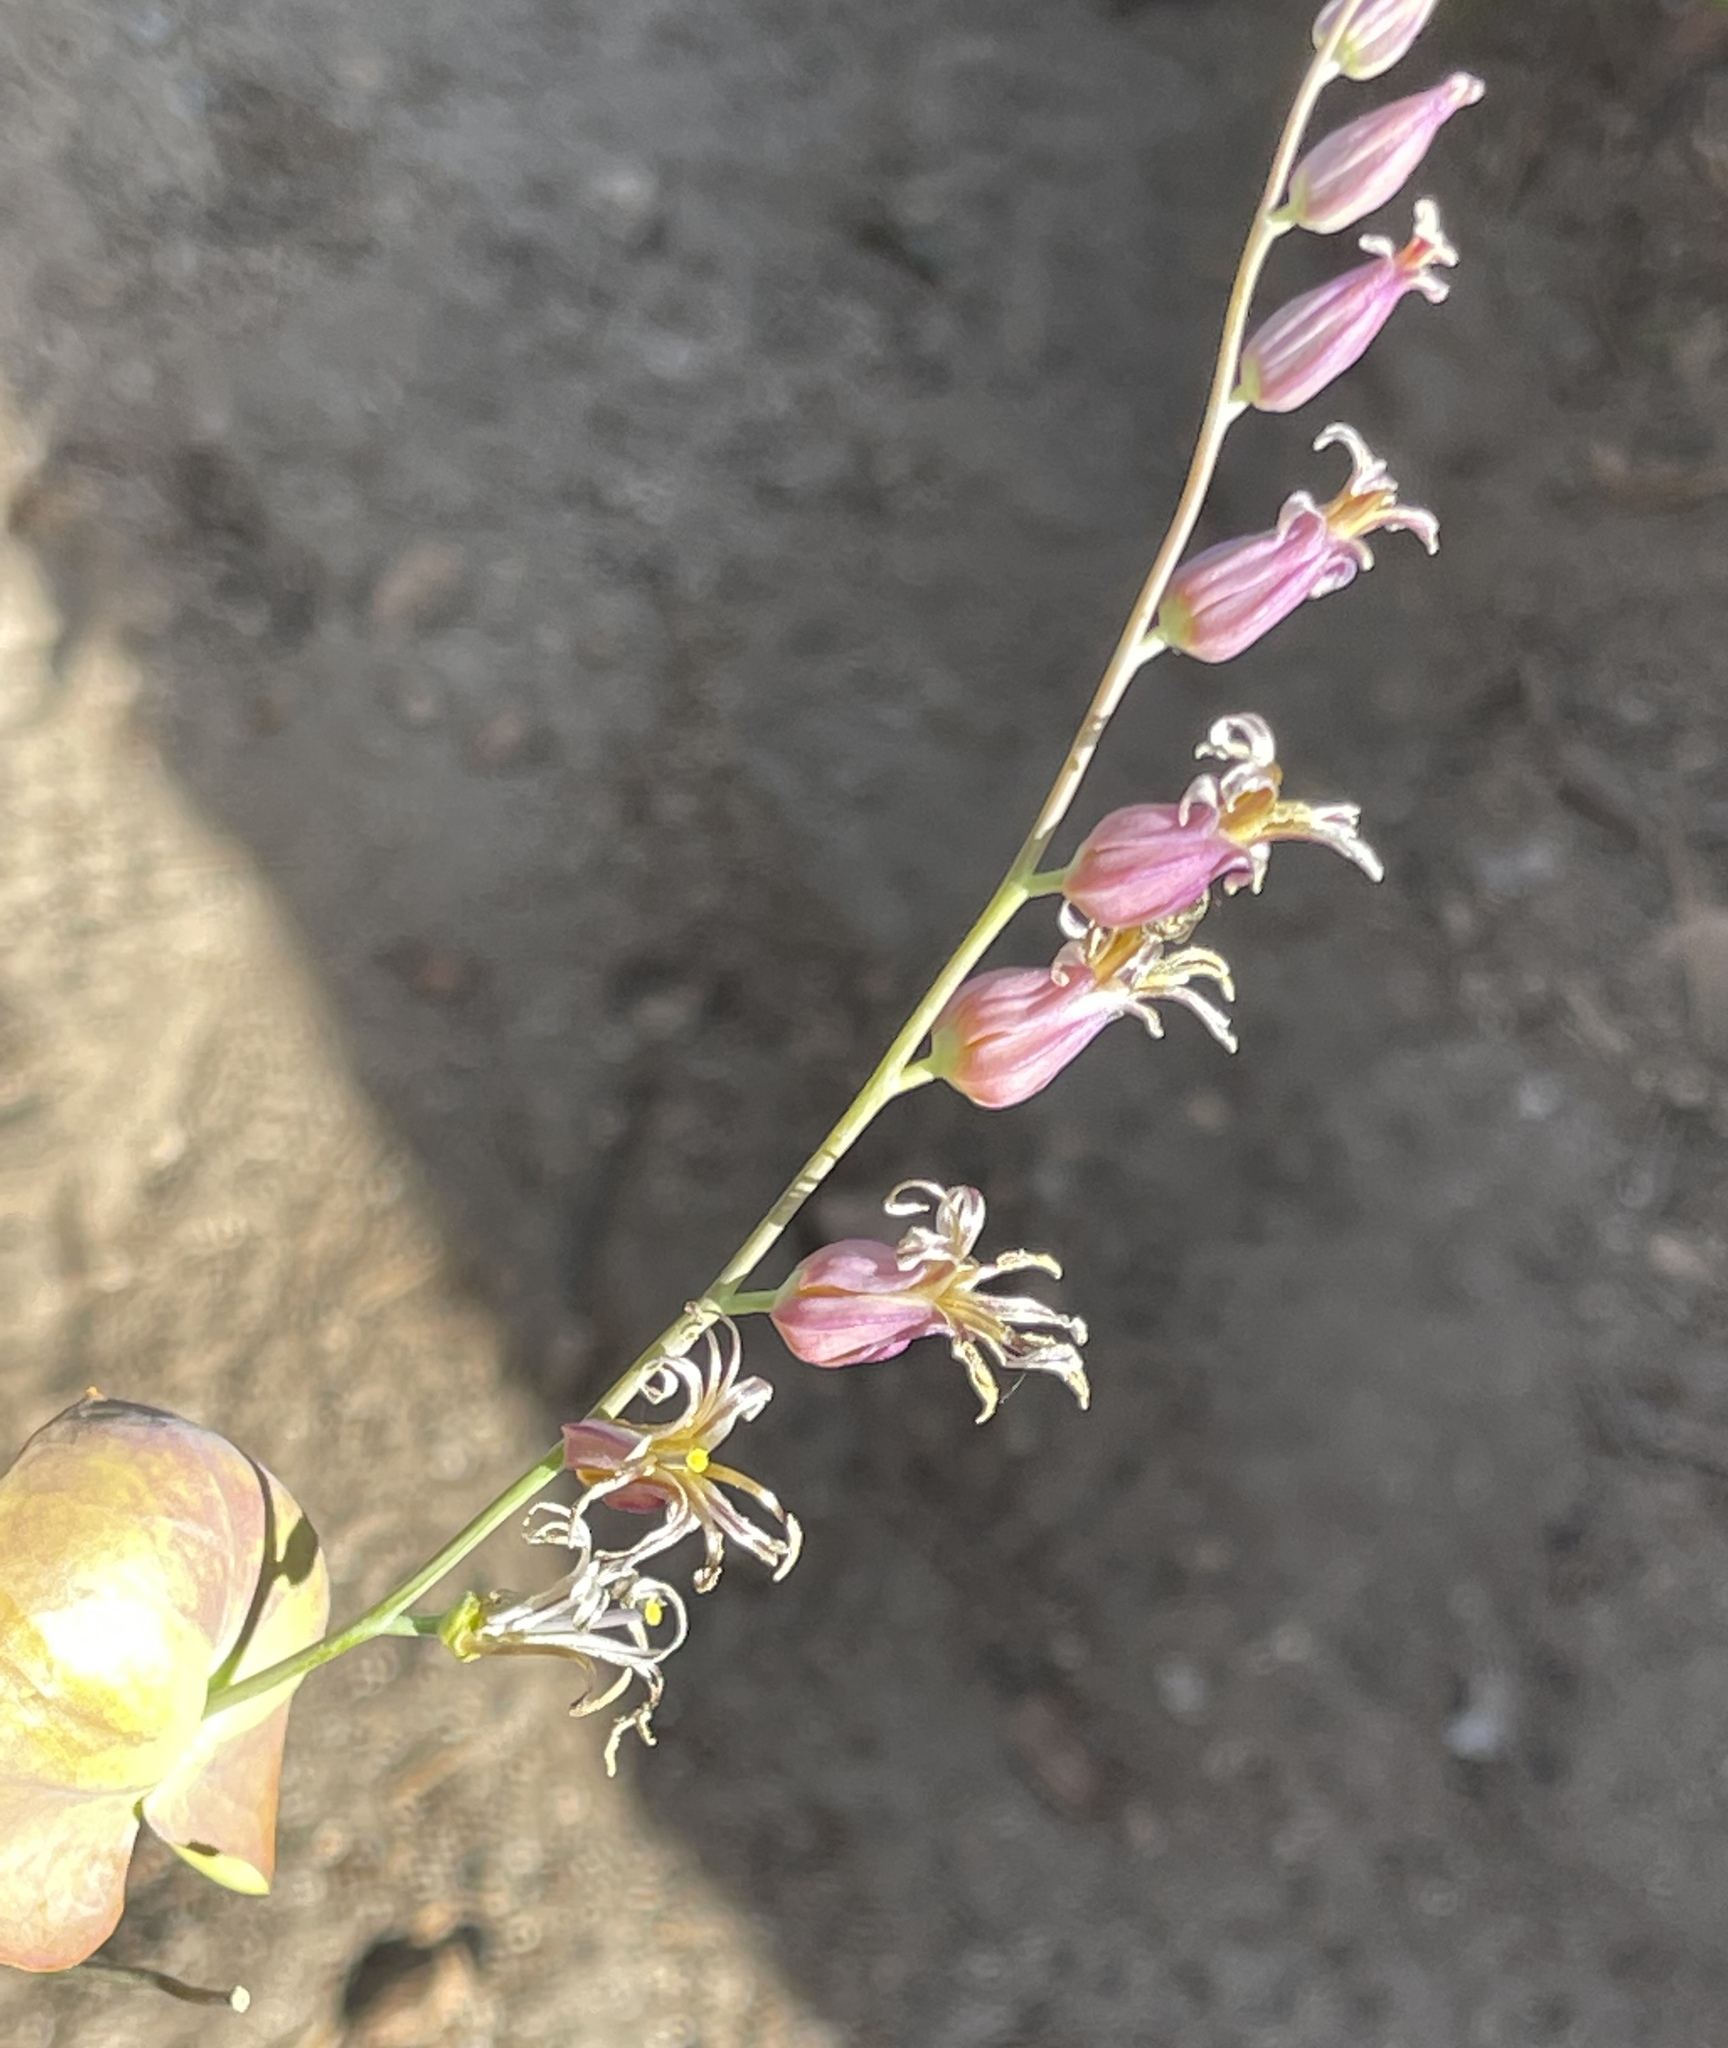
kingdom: Plantae
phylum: Tracheophyta
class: Magnoliopsida
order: Brassicales
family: Brassicaceae
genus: Streptanthus
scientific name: Streptanthus tortuosus
